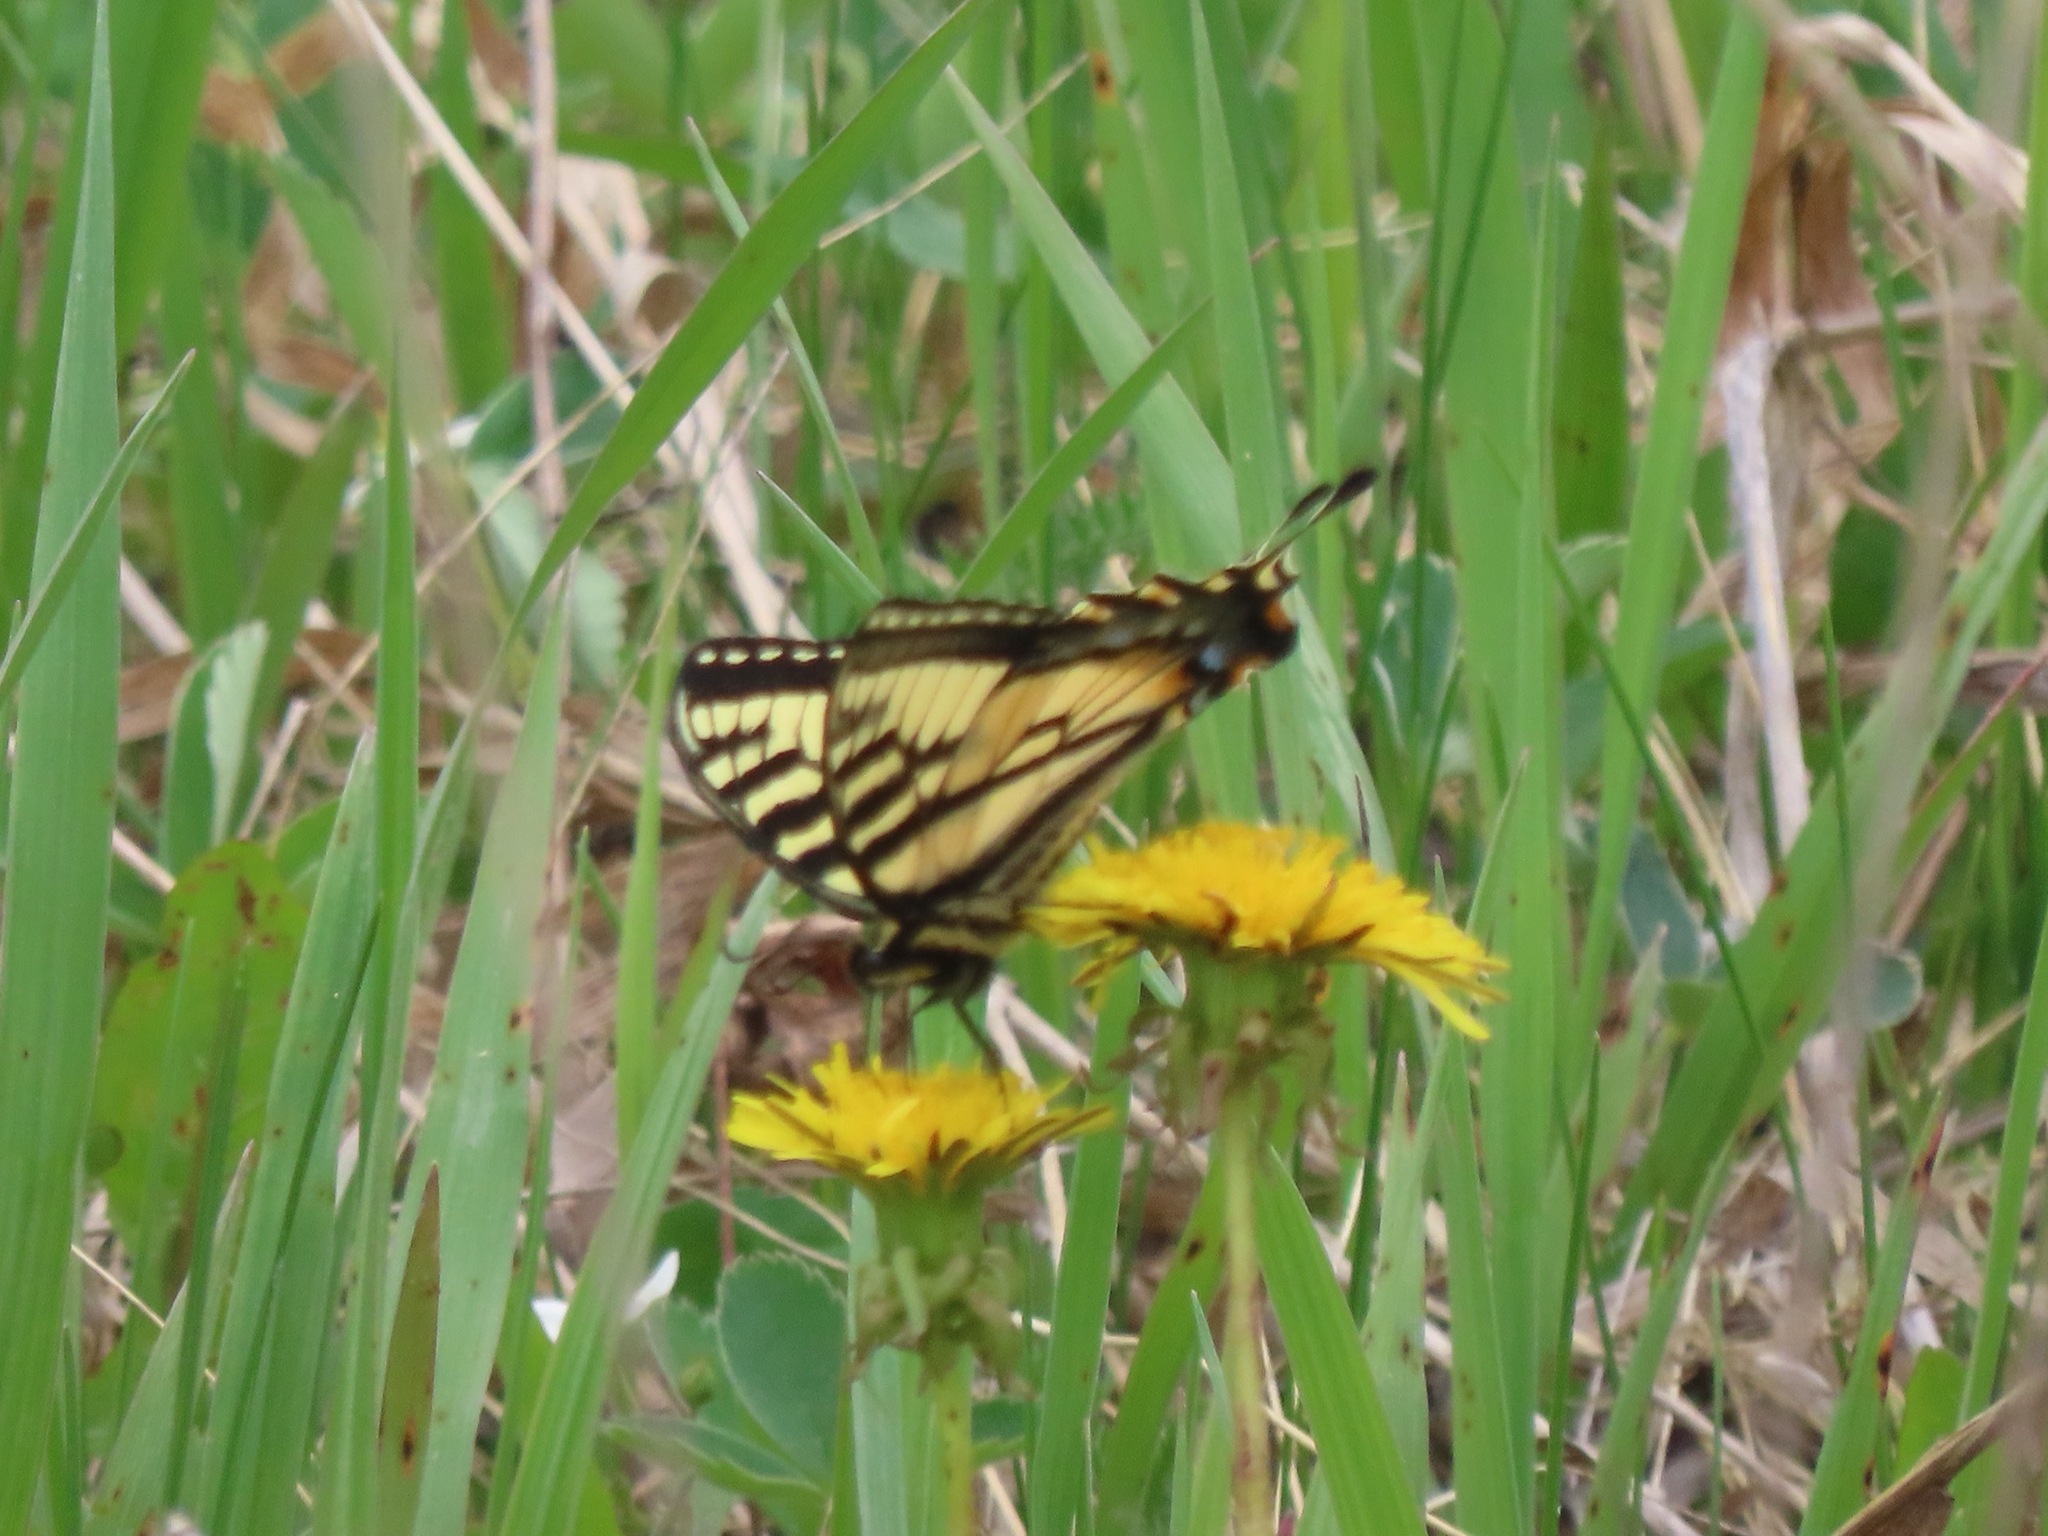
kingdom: Animalia
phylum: Arthropoda
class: Insecta
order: Lepidoptera
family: Papilionidae
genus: Papilio
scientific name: Papilio canadensis
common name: Canadian tiger swallowtail
